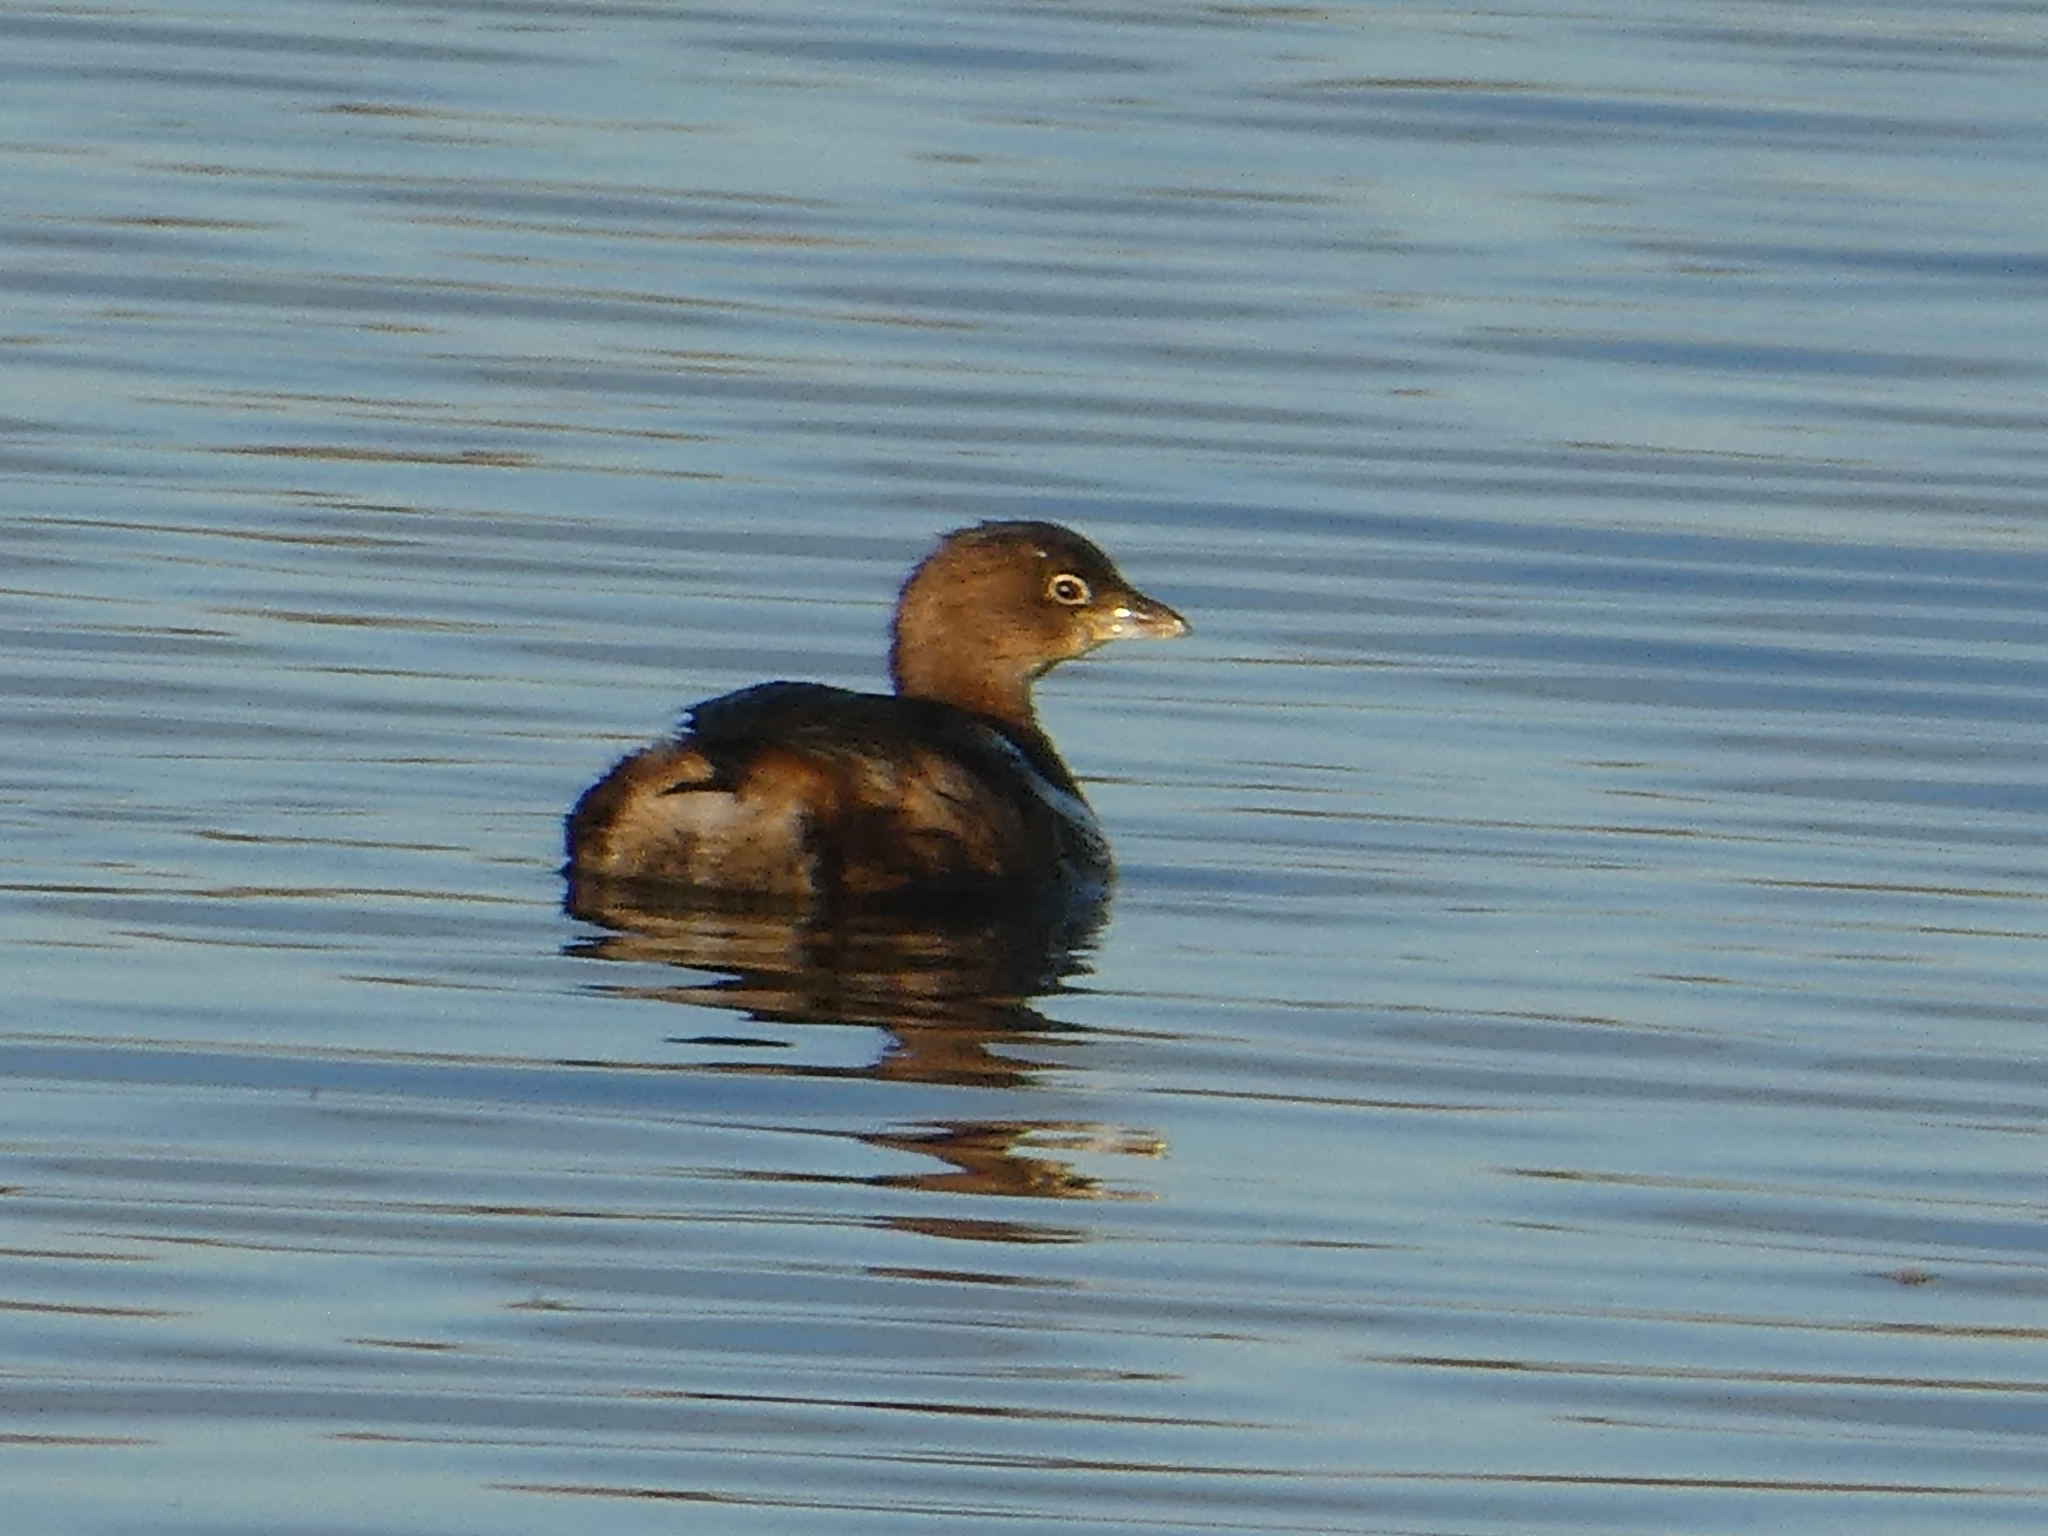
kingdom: Animalia
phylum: Chordata
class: Aves
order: Podicipediformes
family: Podicipedidae
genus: Podilymbus
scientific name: Podilymbus podiceps
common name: Pied-billed grebe
